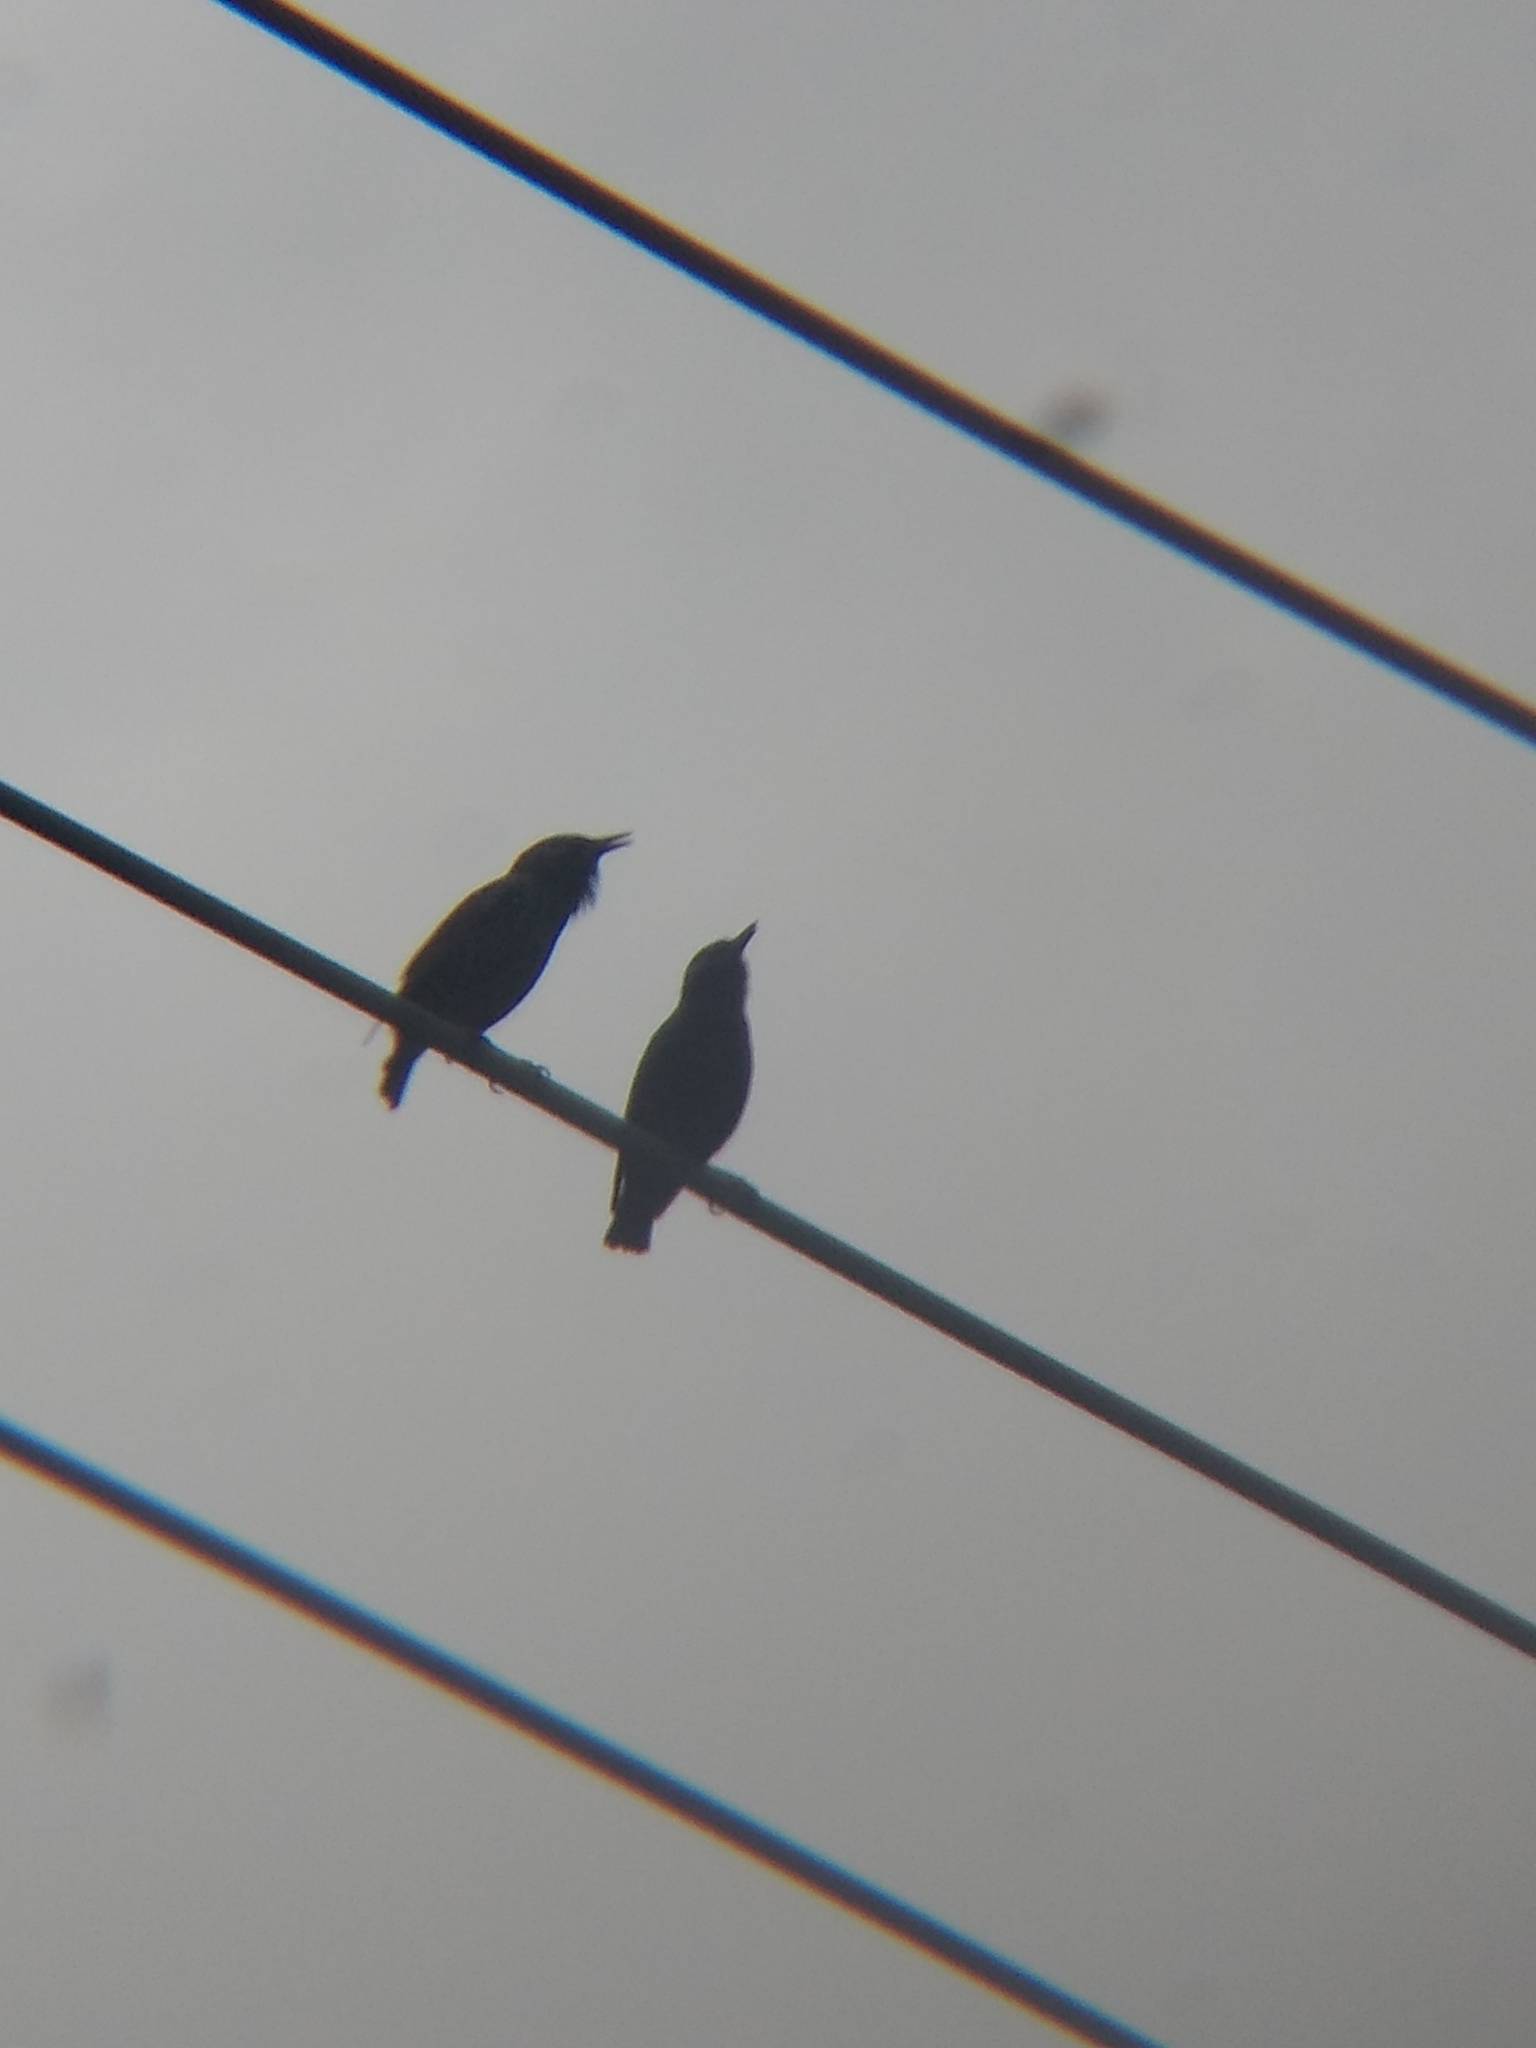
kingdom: Animalia
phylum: Chordata
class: Aves
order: Passeriformes
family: Sturnidae
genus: Sturnus
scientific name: Sturnus vulgaris
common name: Common starling
